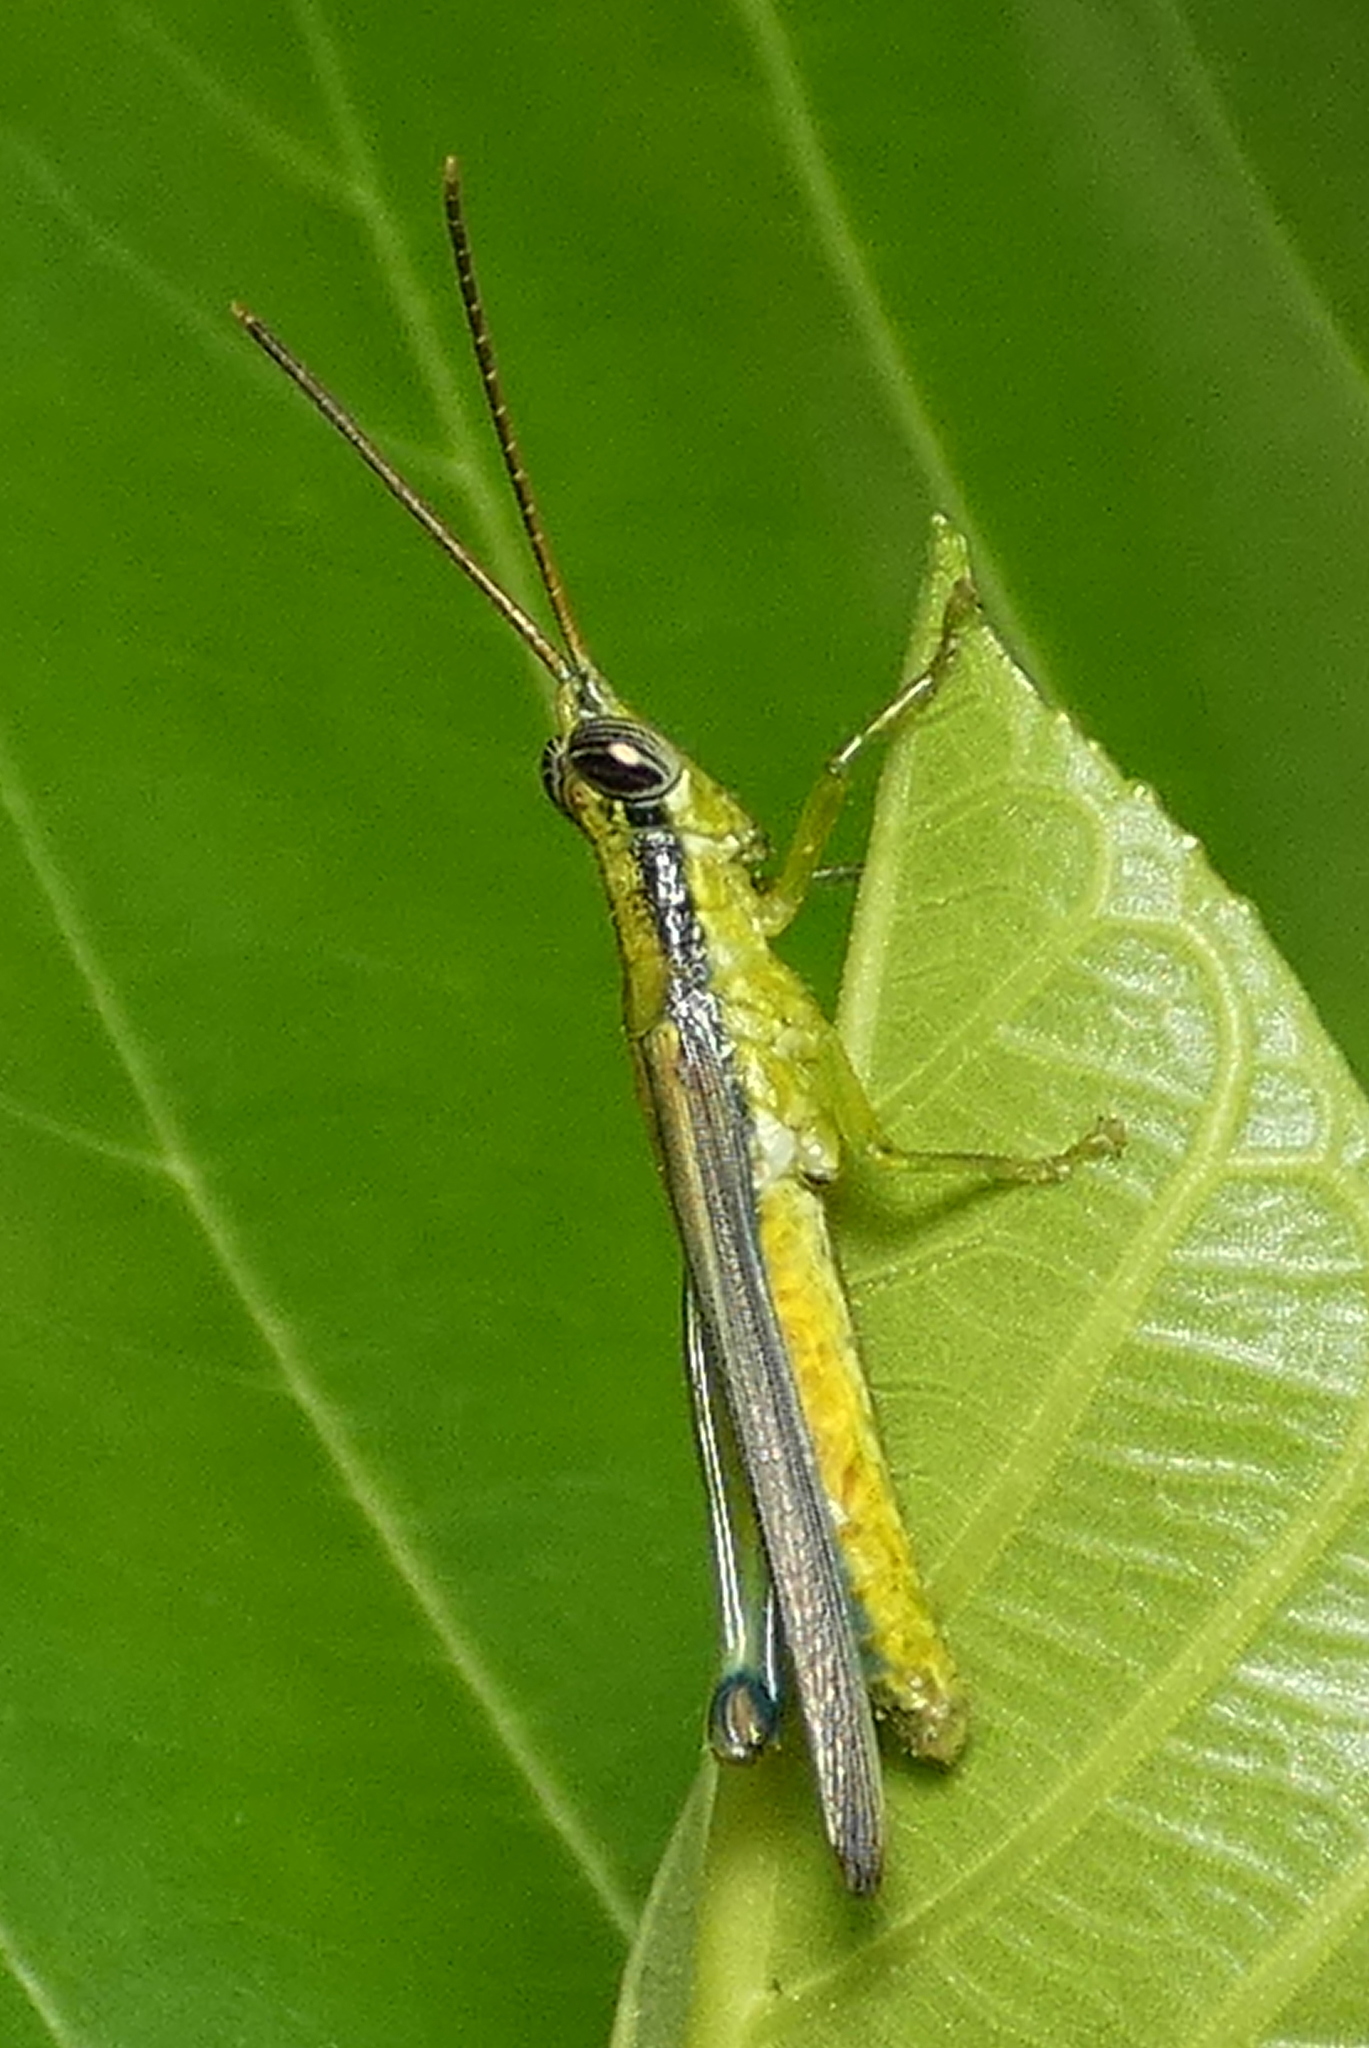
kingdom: Animalia
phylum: Arthropoda
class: Insecta
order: Orthoptera
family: Acrididae
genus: Stenopola
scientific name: Stenopola puncticeps
